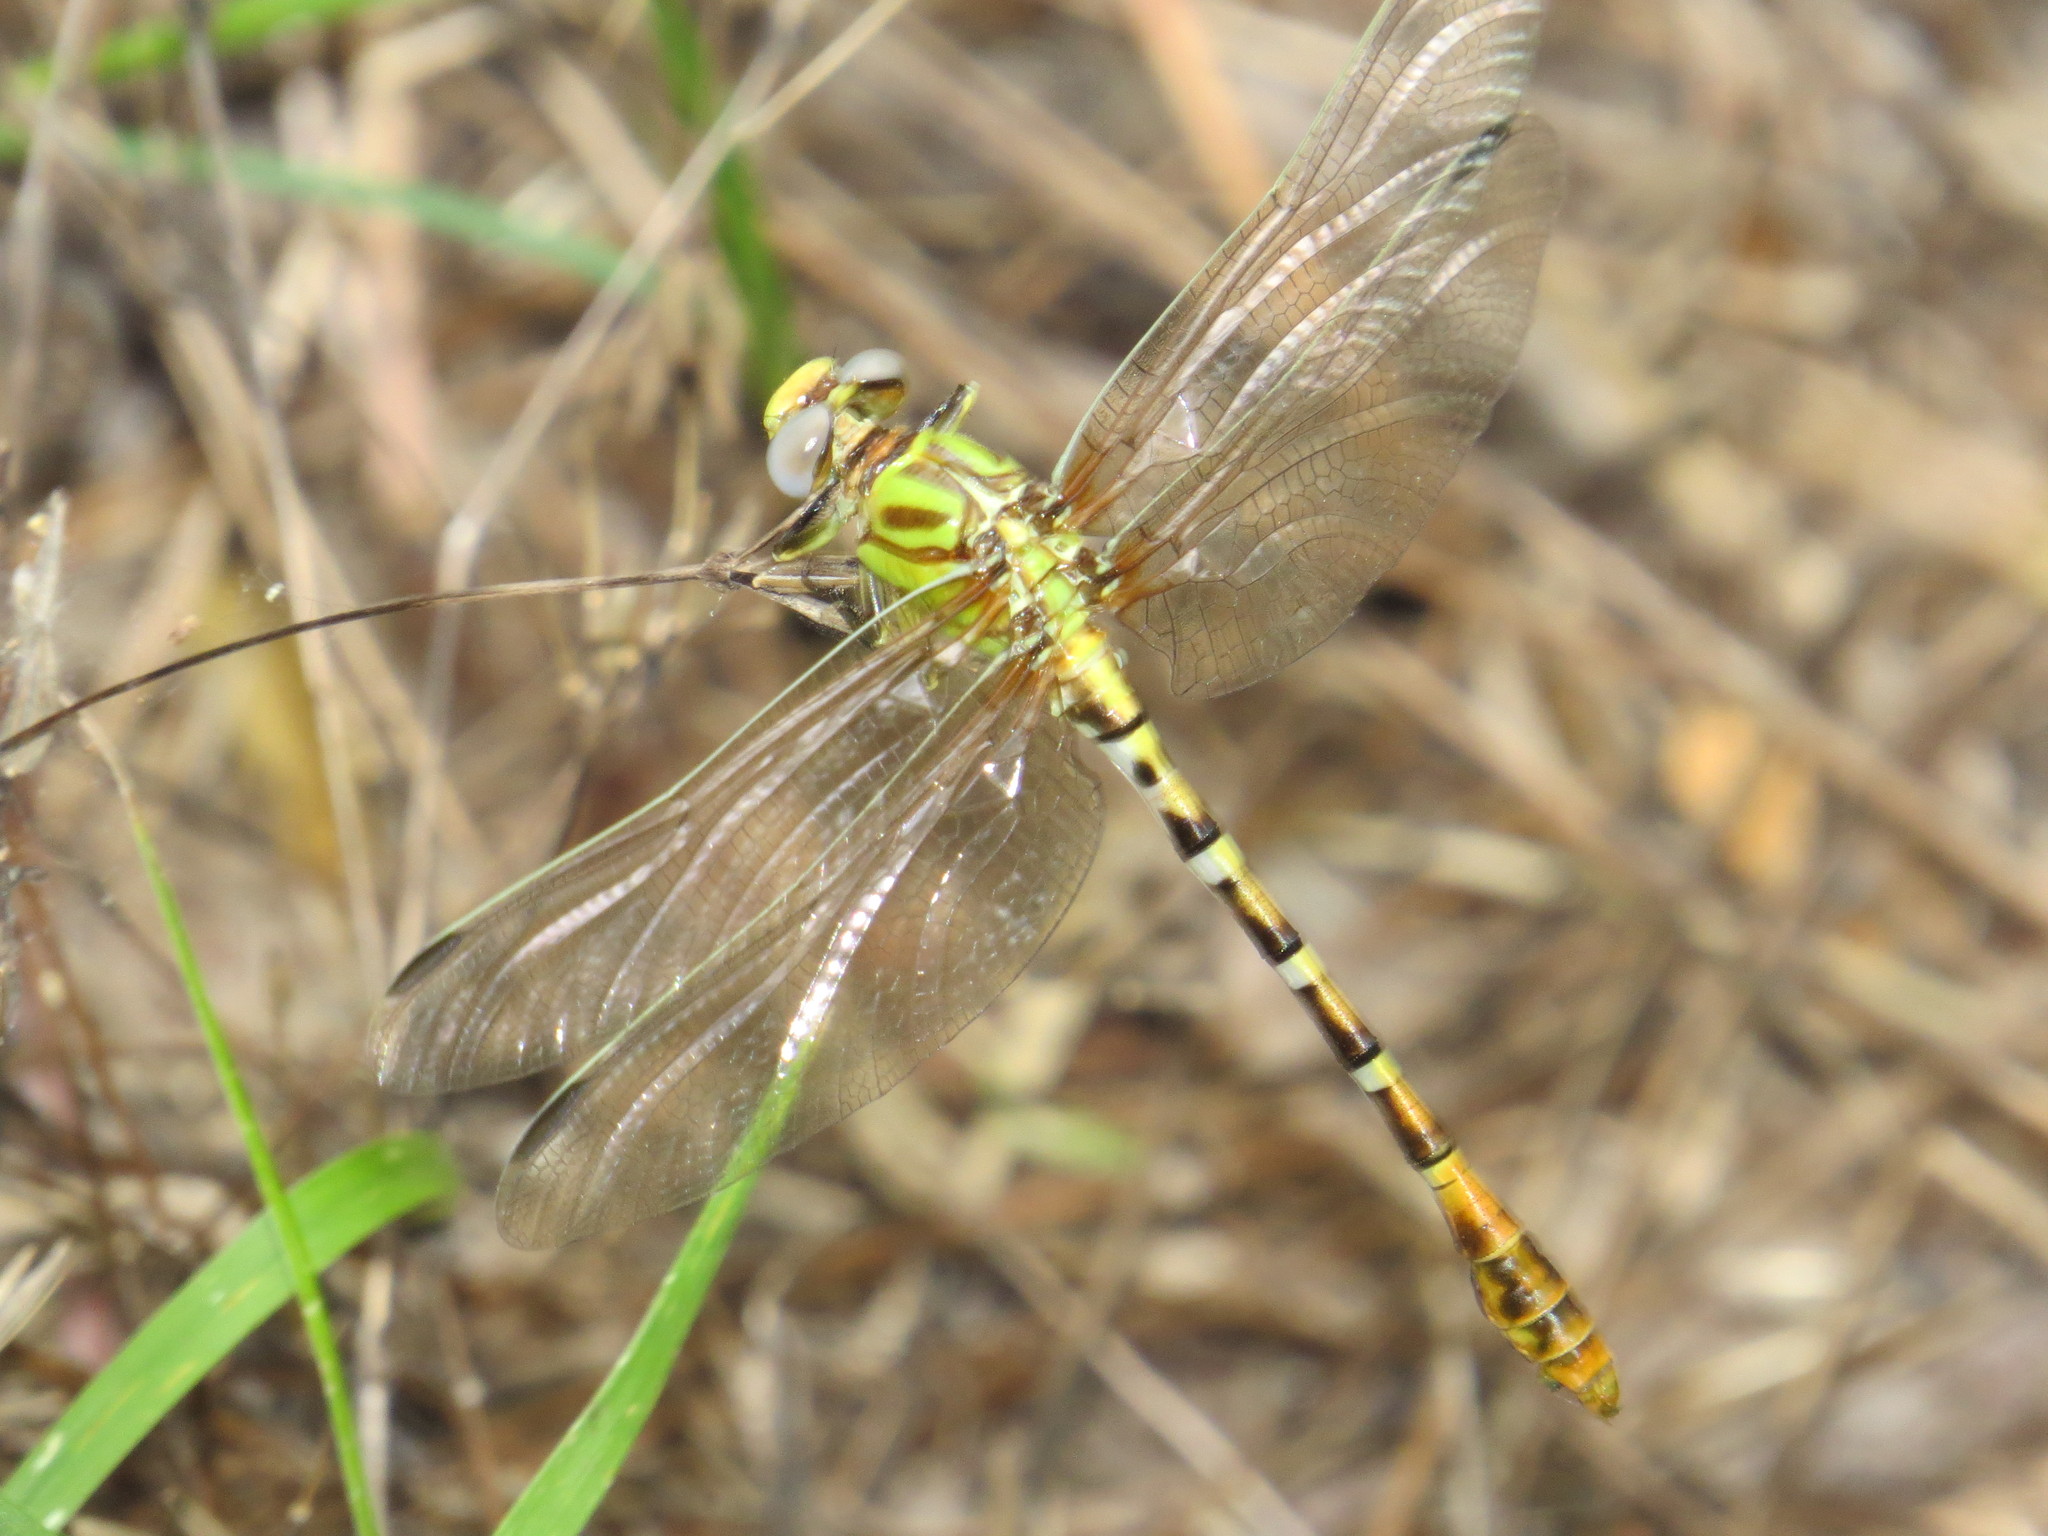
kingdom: Animalia
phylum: Arthropoda
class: Insecta
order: Odonata
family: Gomphidae
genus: Erpetogomphus
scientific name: Erpetogomphus designatus
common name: Eastern ringtail
